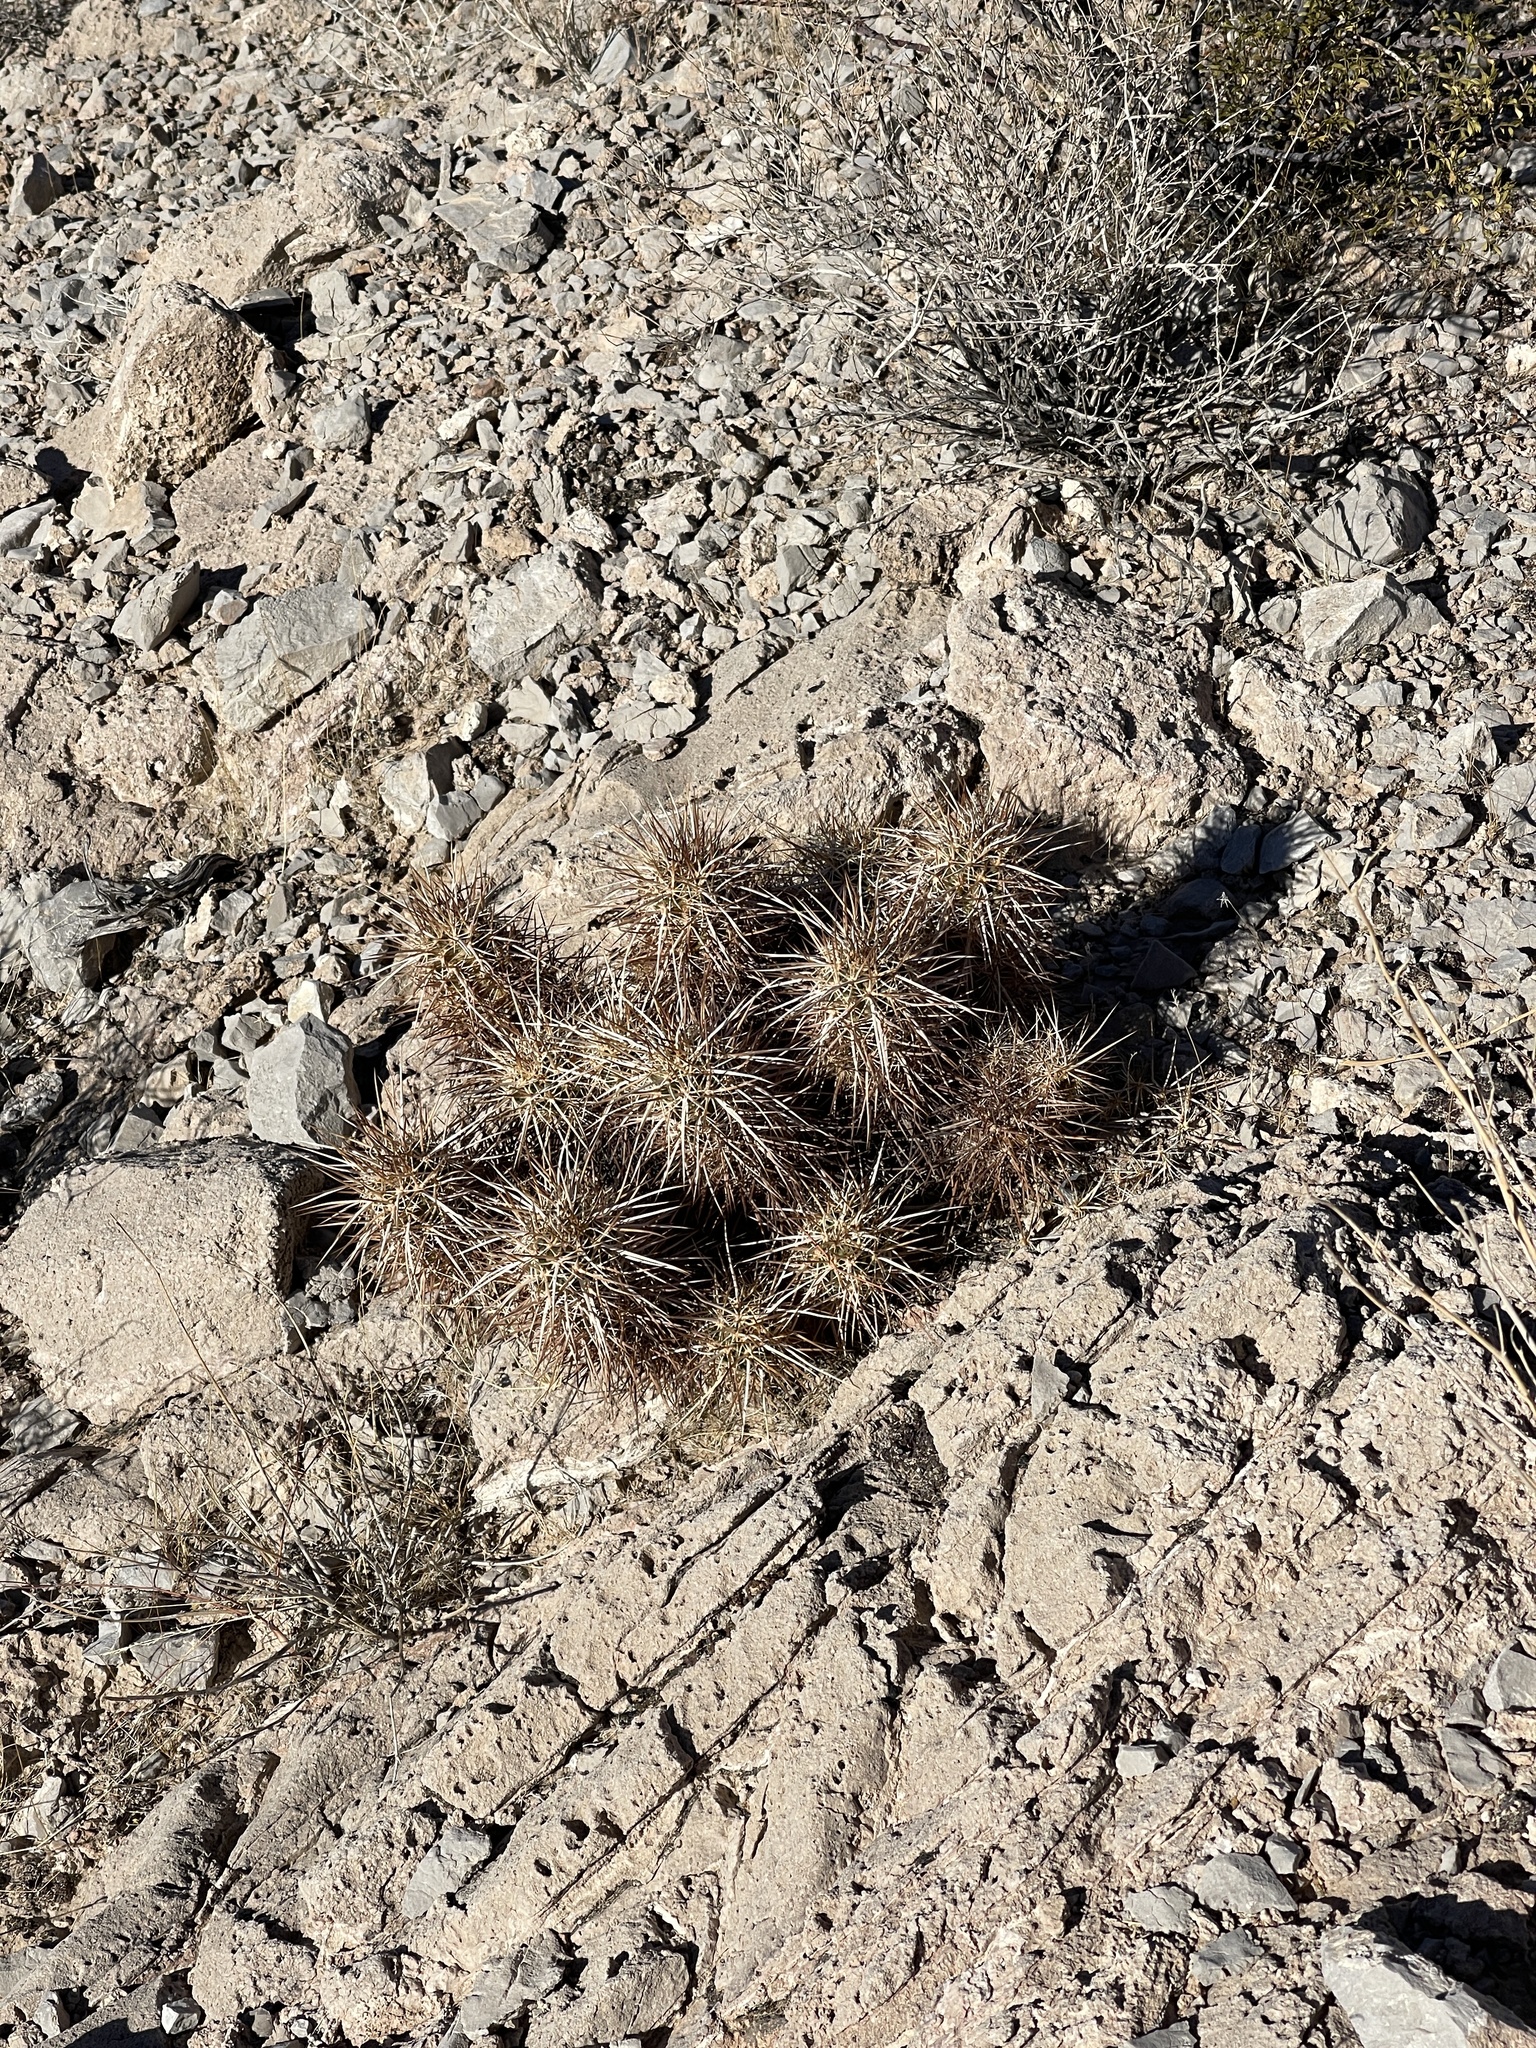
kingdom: Plantae
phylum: Tracheophyta
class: Magnoliopsida
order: Caryophyllales
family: Cactaceae
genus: Echinocereus
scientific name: Echinocereus engelmannii
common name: Engelmann's hedgehog cactus
